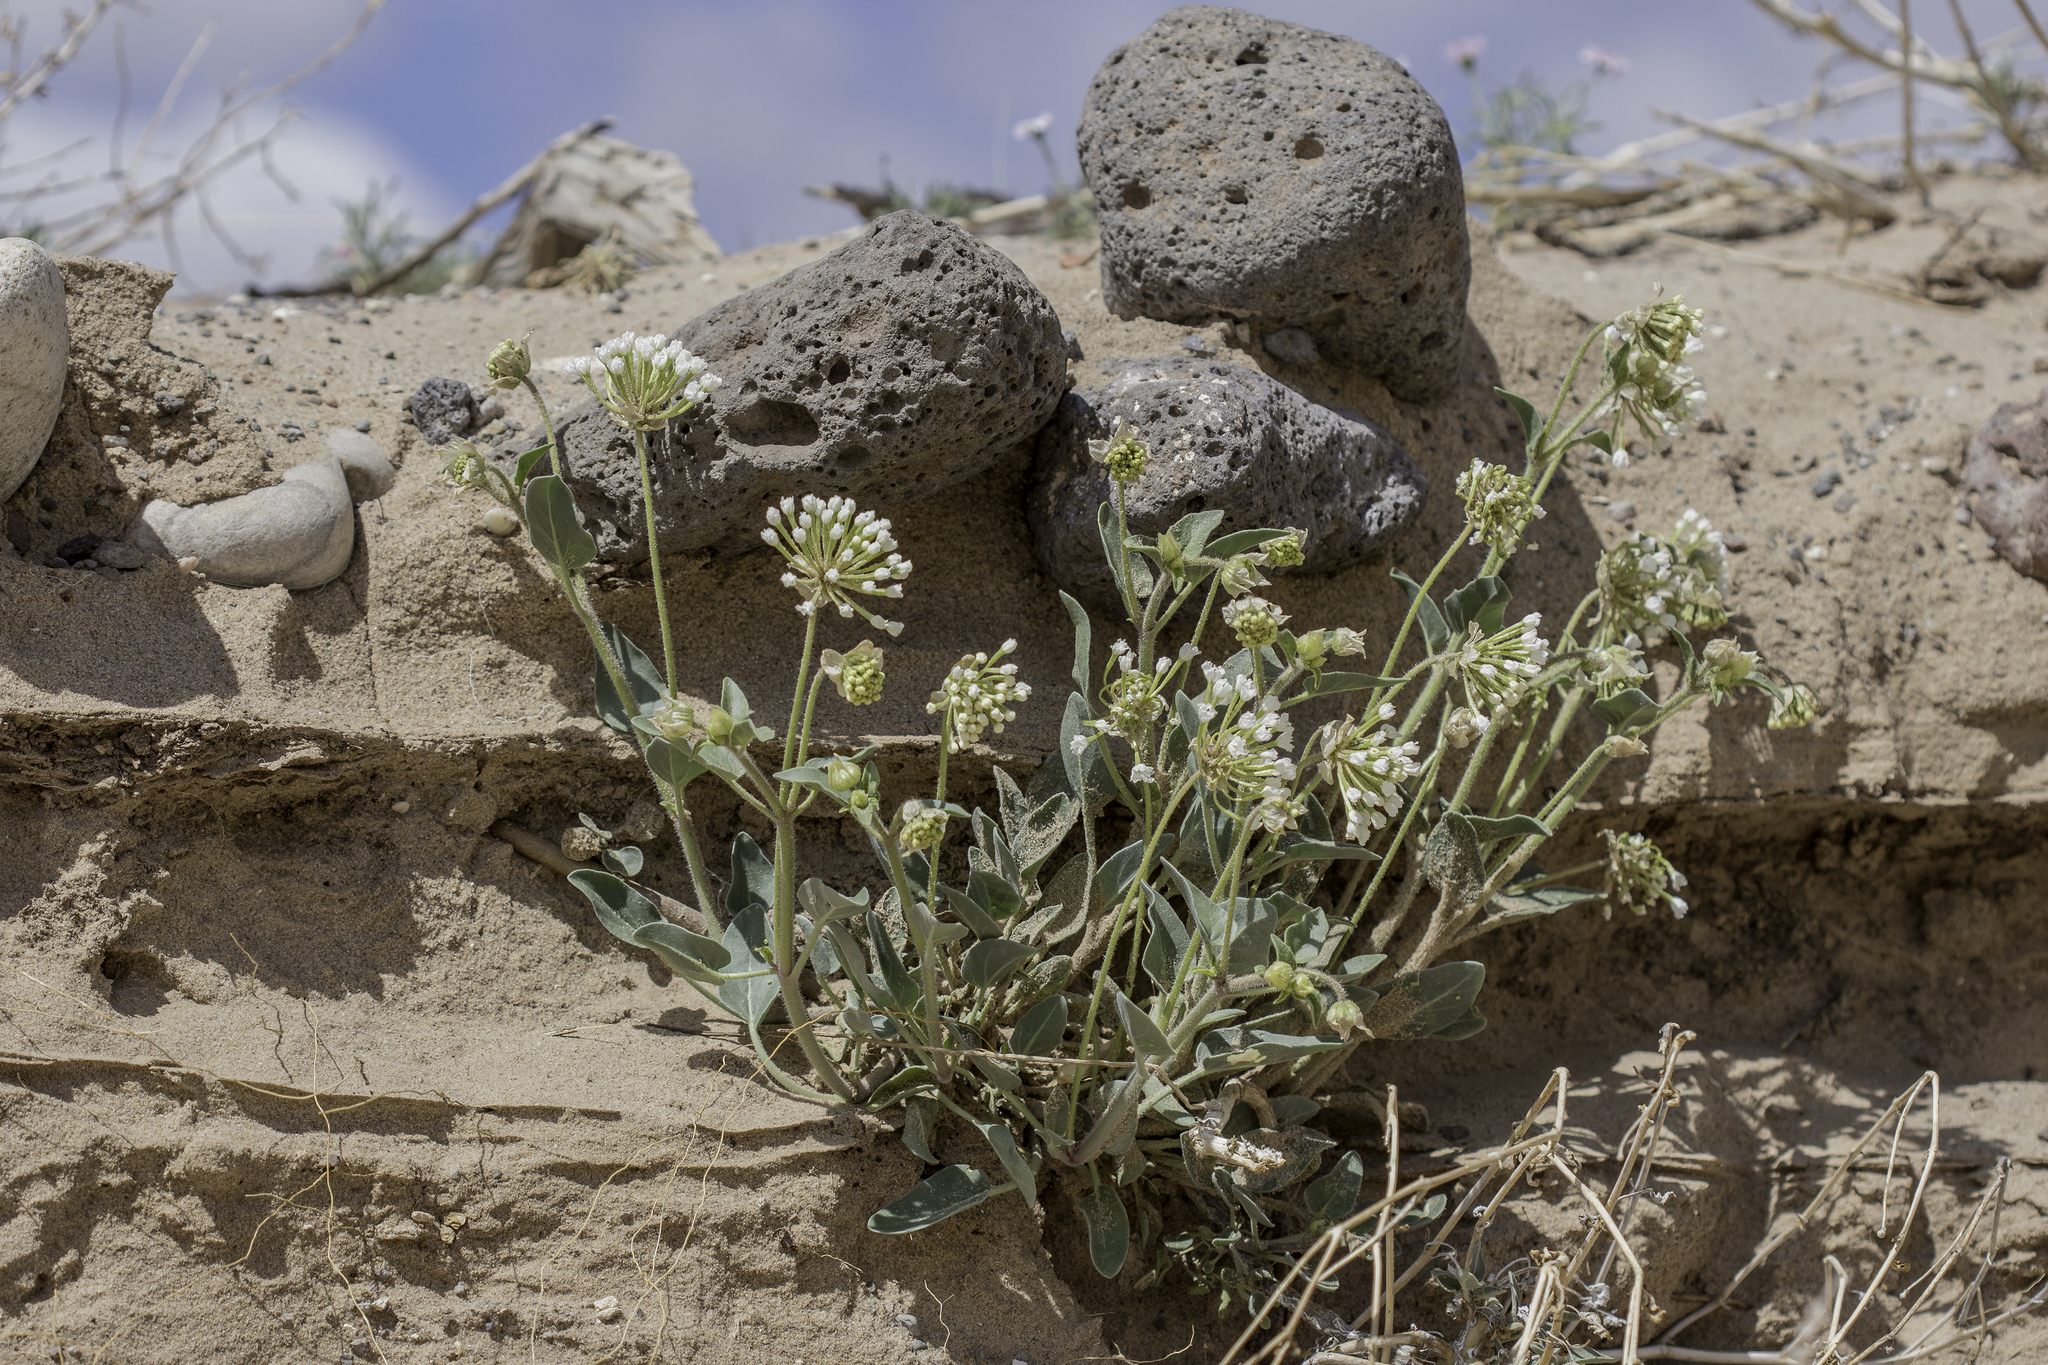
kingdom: Plantae
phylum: Tracheophyta
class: Magnoliopsida
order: Caryophyllales
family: Nyctaginaceae
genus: Abronia
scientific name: Abronia fragrans
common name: Fragrant sand-verbena
